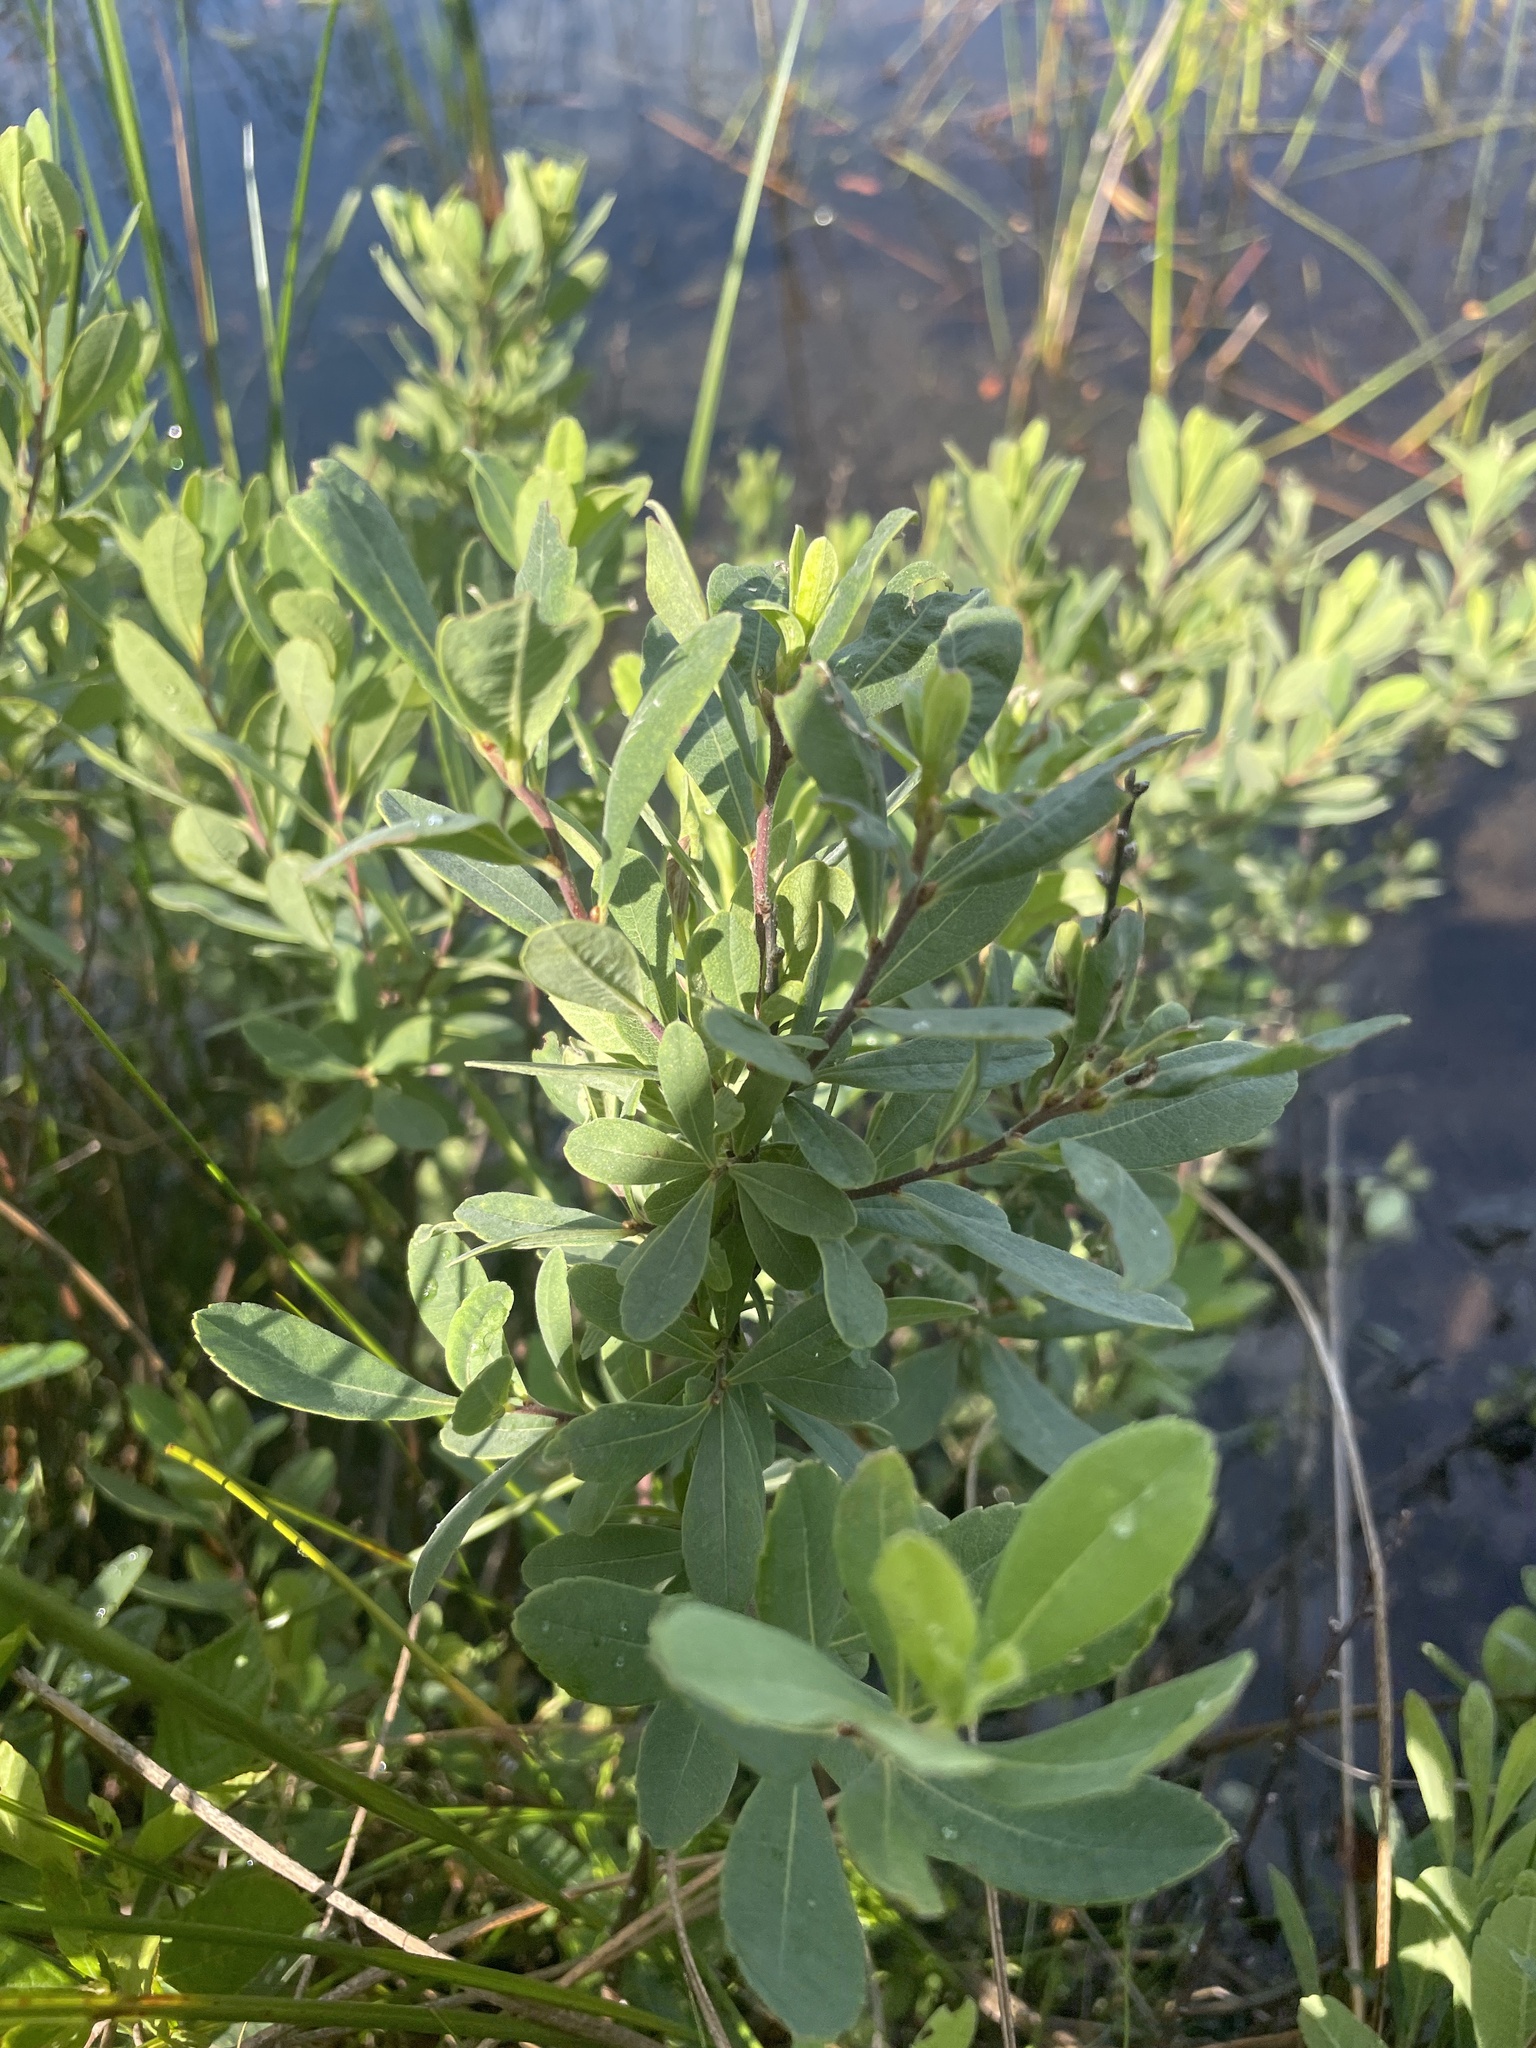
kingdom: Plantae
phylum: Tracheophyta
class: Magnoliopsida
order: Fagales
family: Myricaceae
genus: Myrica
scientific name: Myrica gale
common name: Sweet gale
